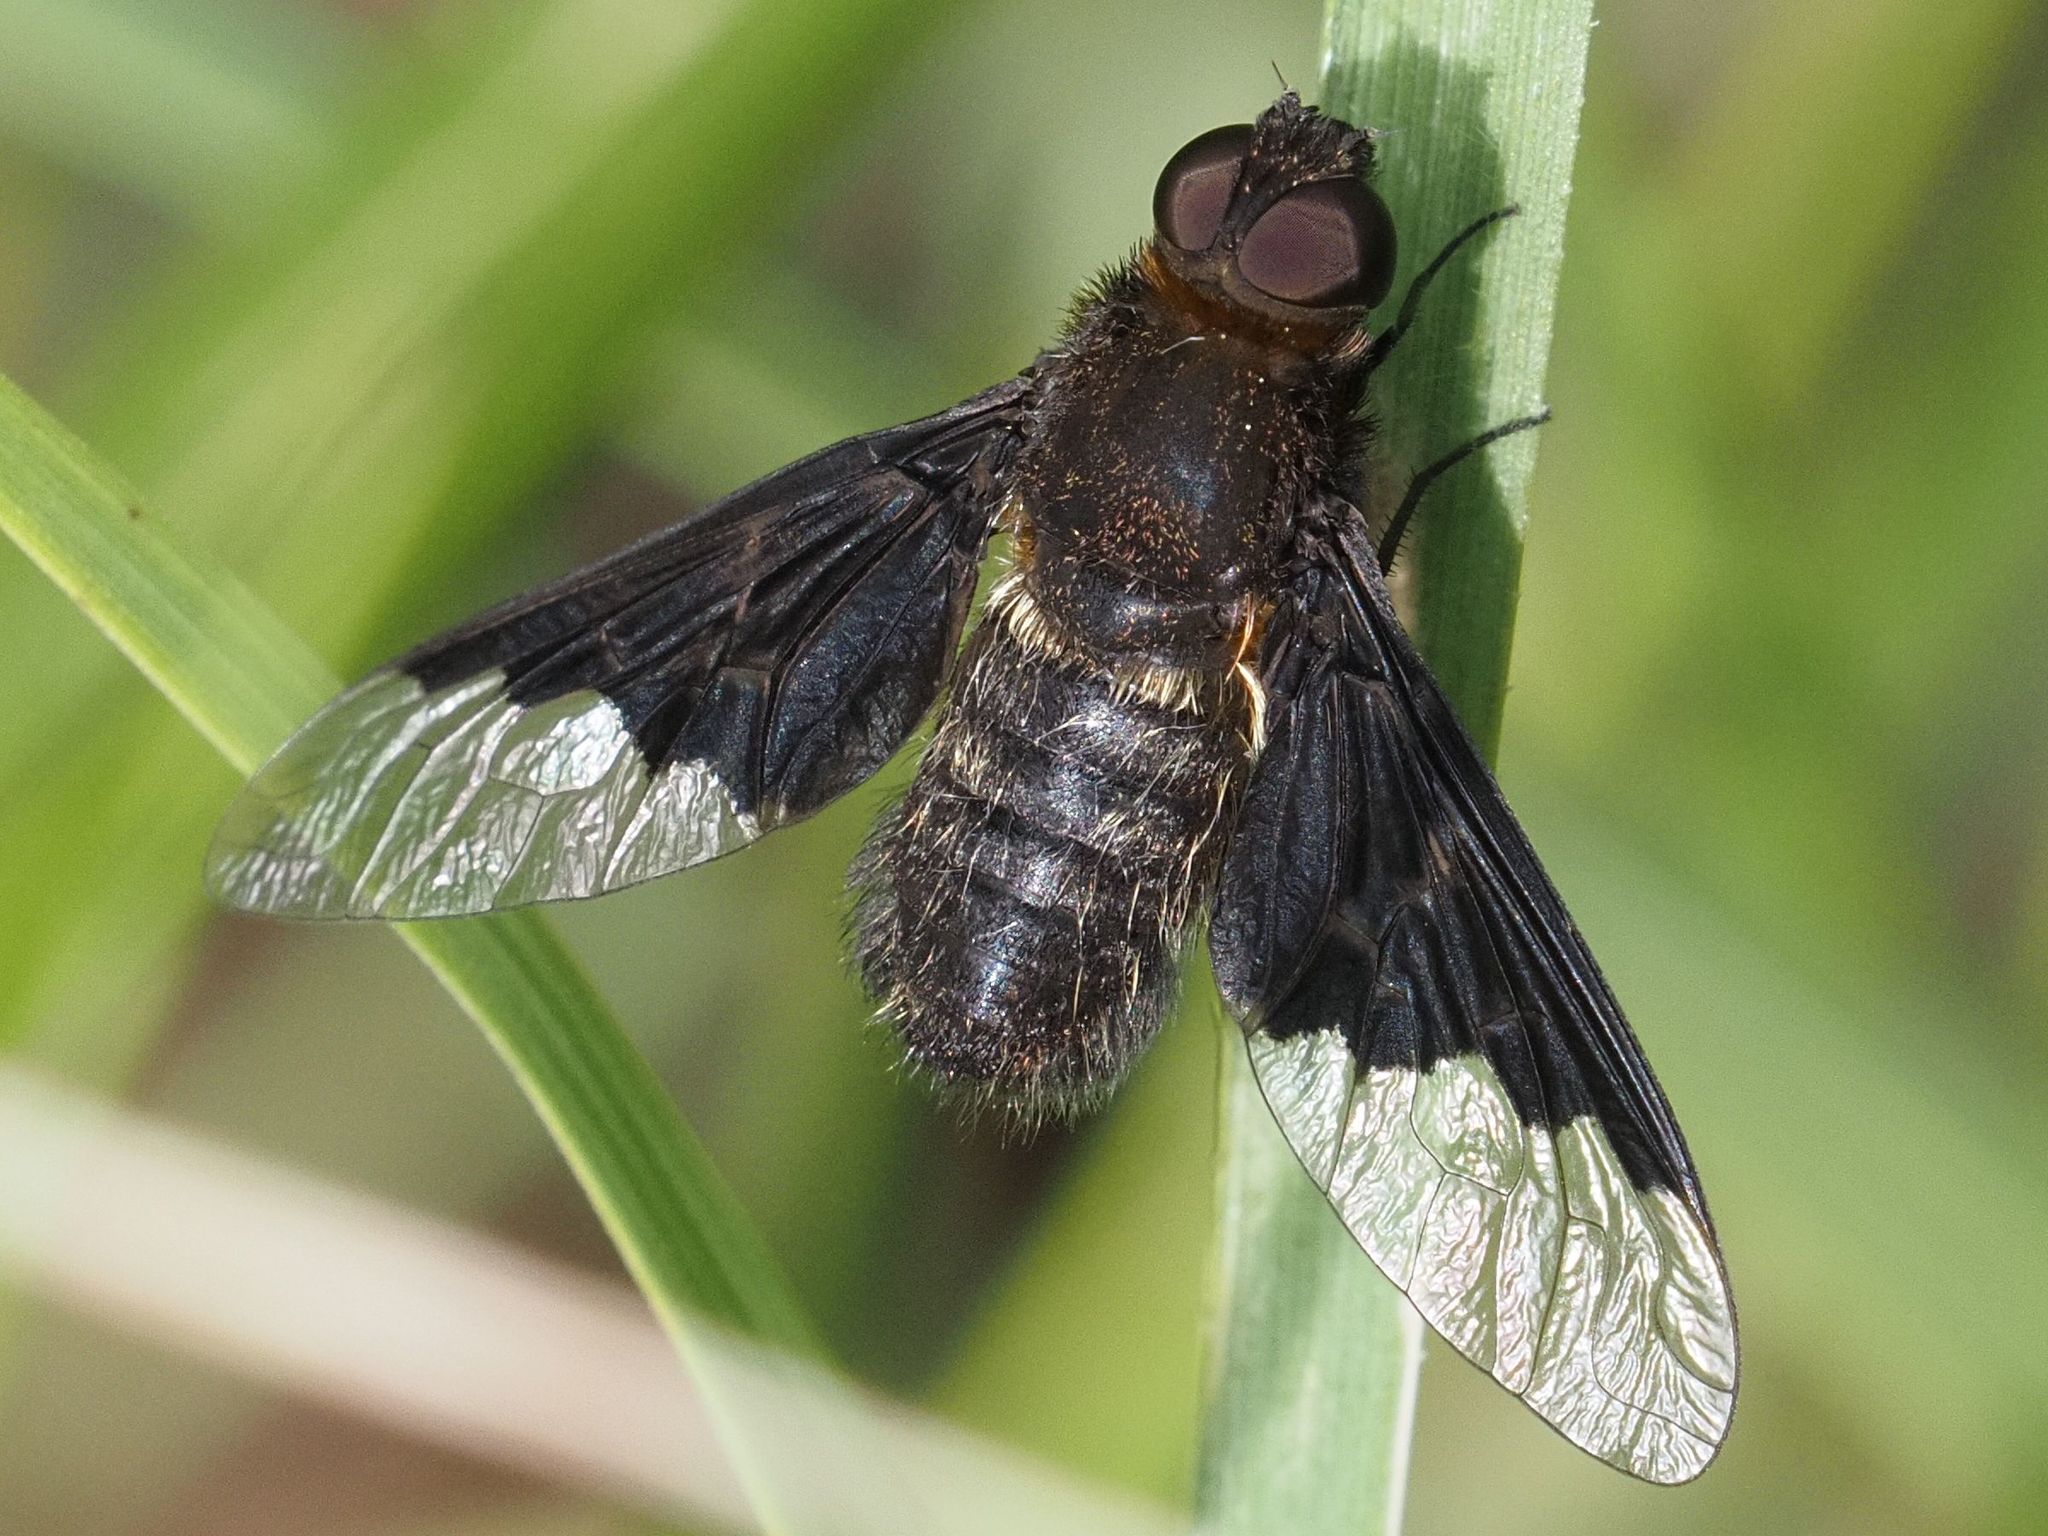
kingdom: Animalia
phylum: Arthropoda
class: Insecta
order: Diptera
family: Bombyliidae
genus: Hemipenthes
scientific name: Hemipenthes morio
